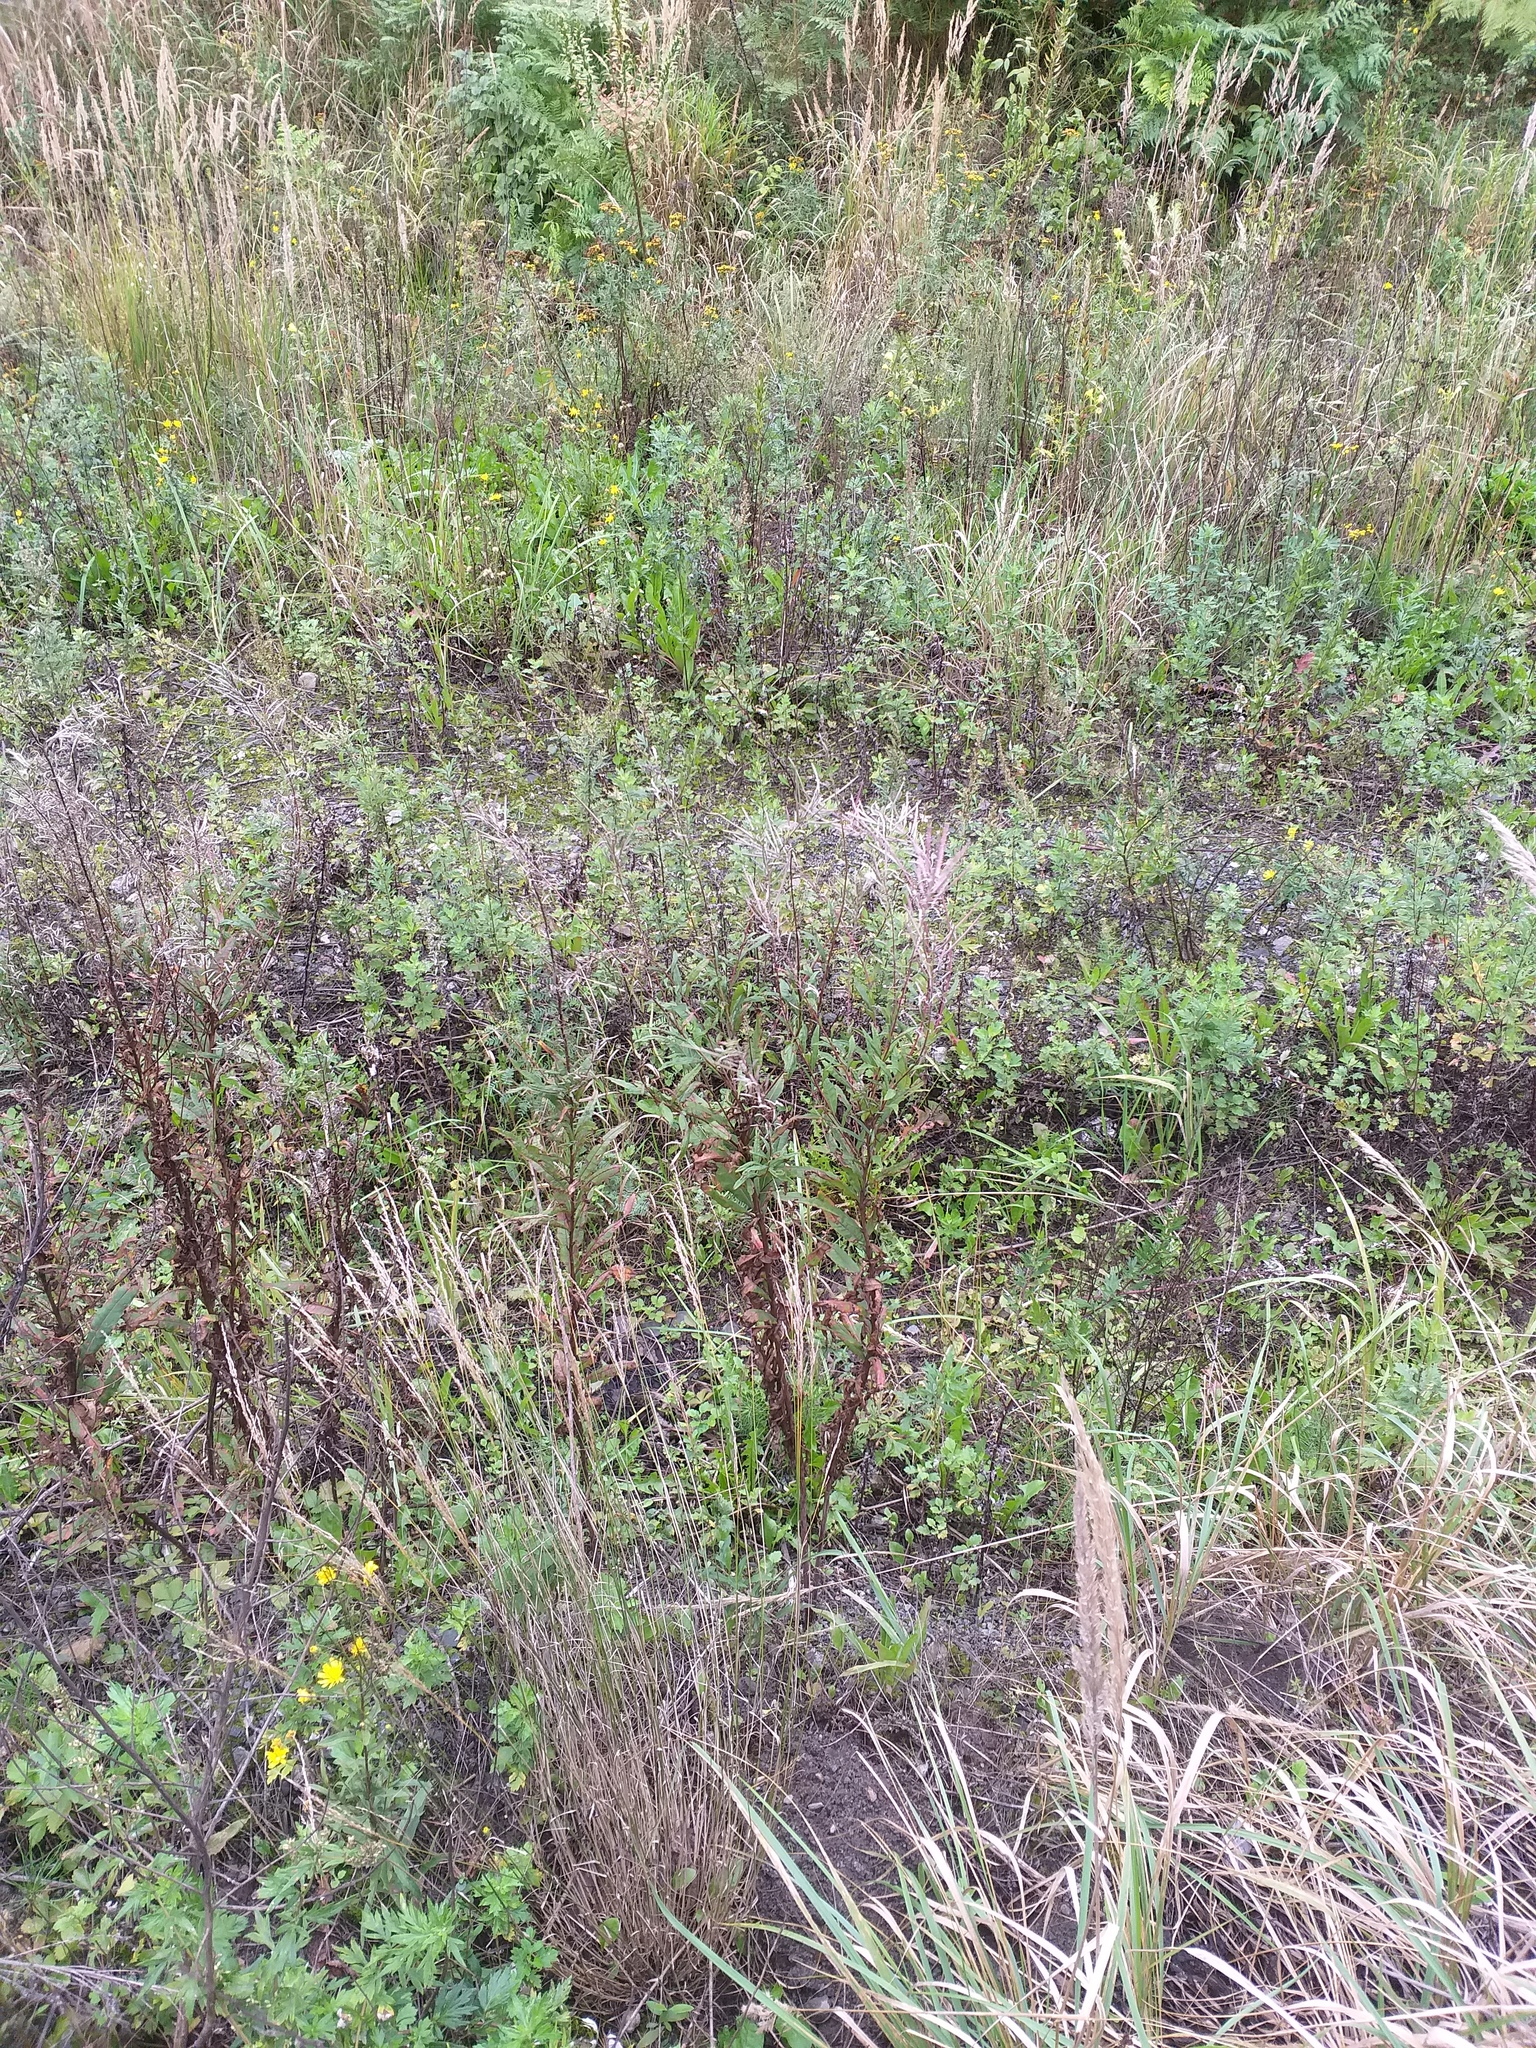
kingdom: Plantae
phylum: Tracheophyta
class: Magnoliopsida
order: Myrtales
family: Onagraceae
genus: Chamaenerion
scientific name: Chamaenerion angustifolium
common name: Fireweed
